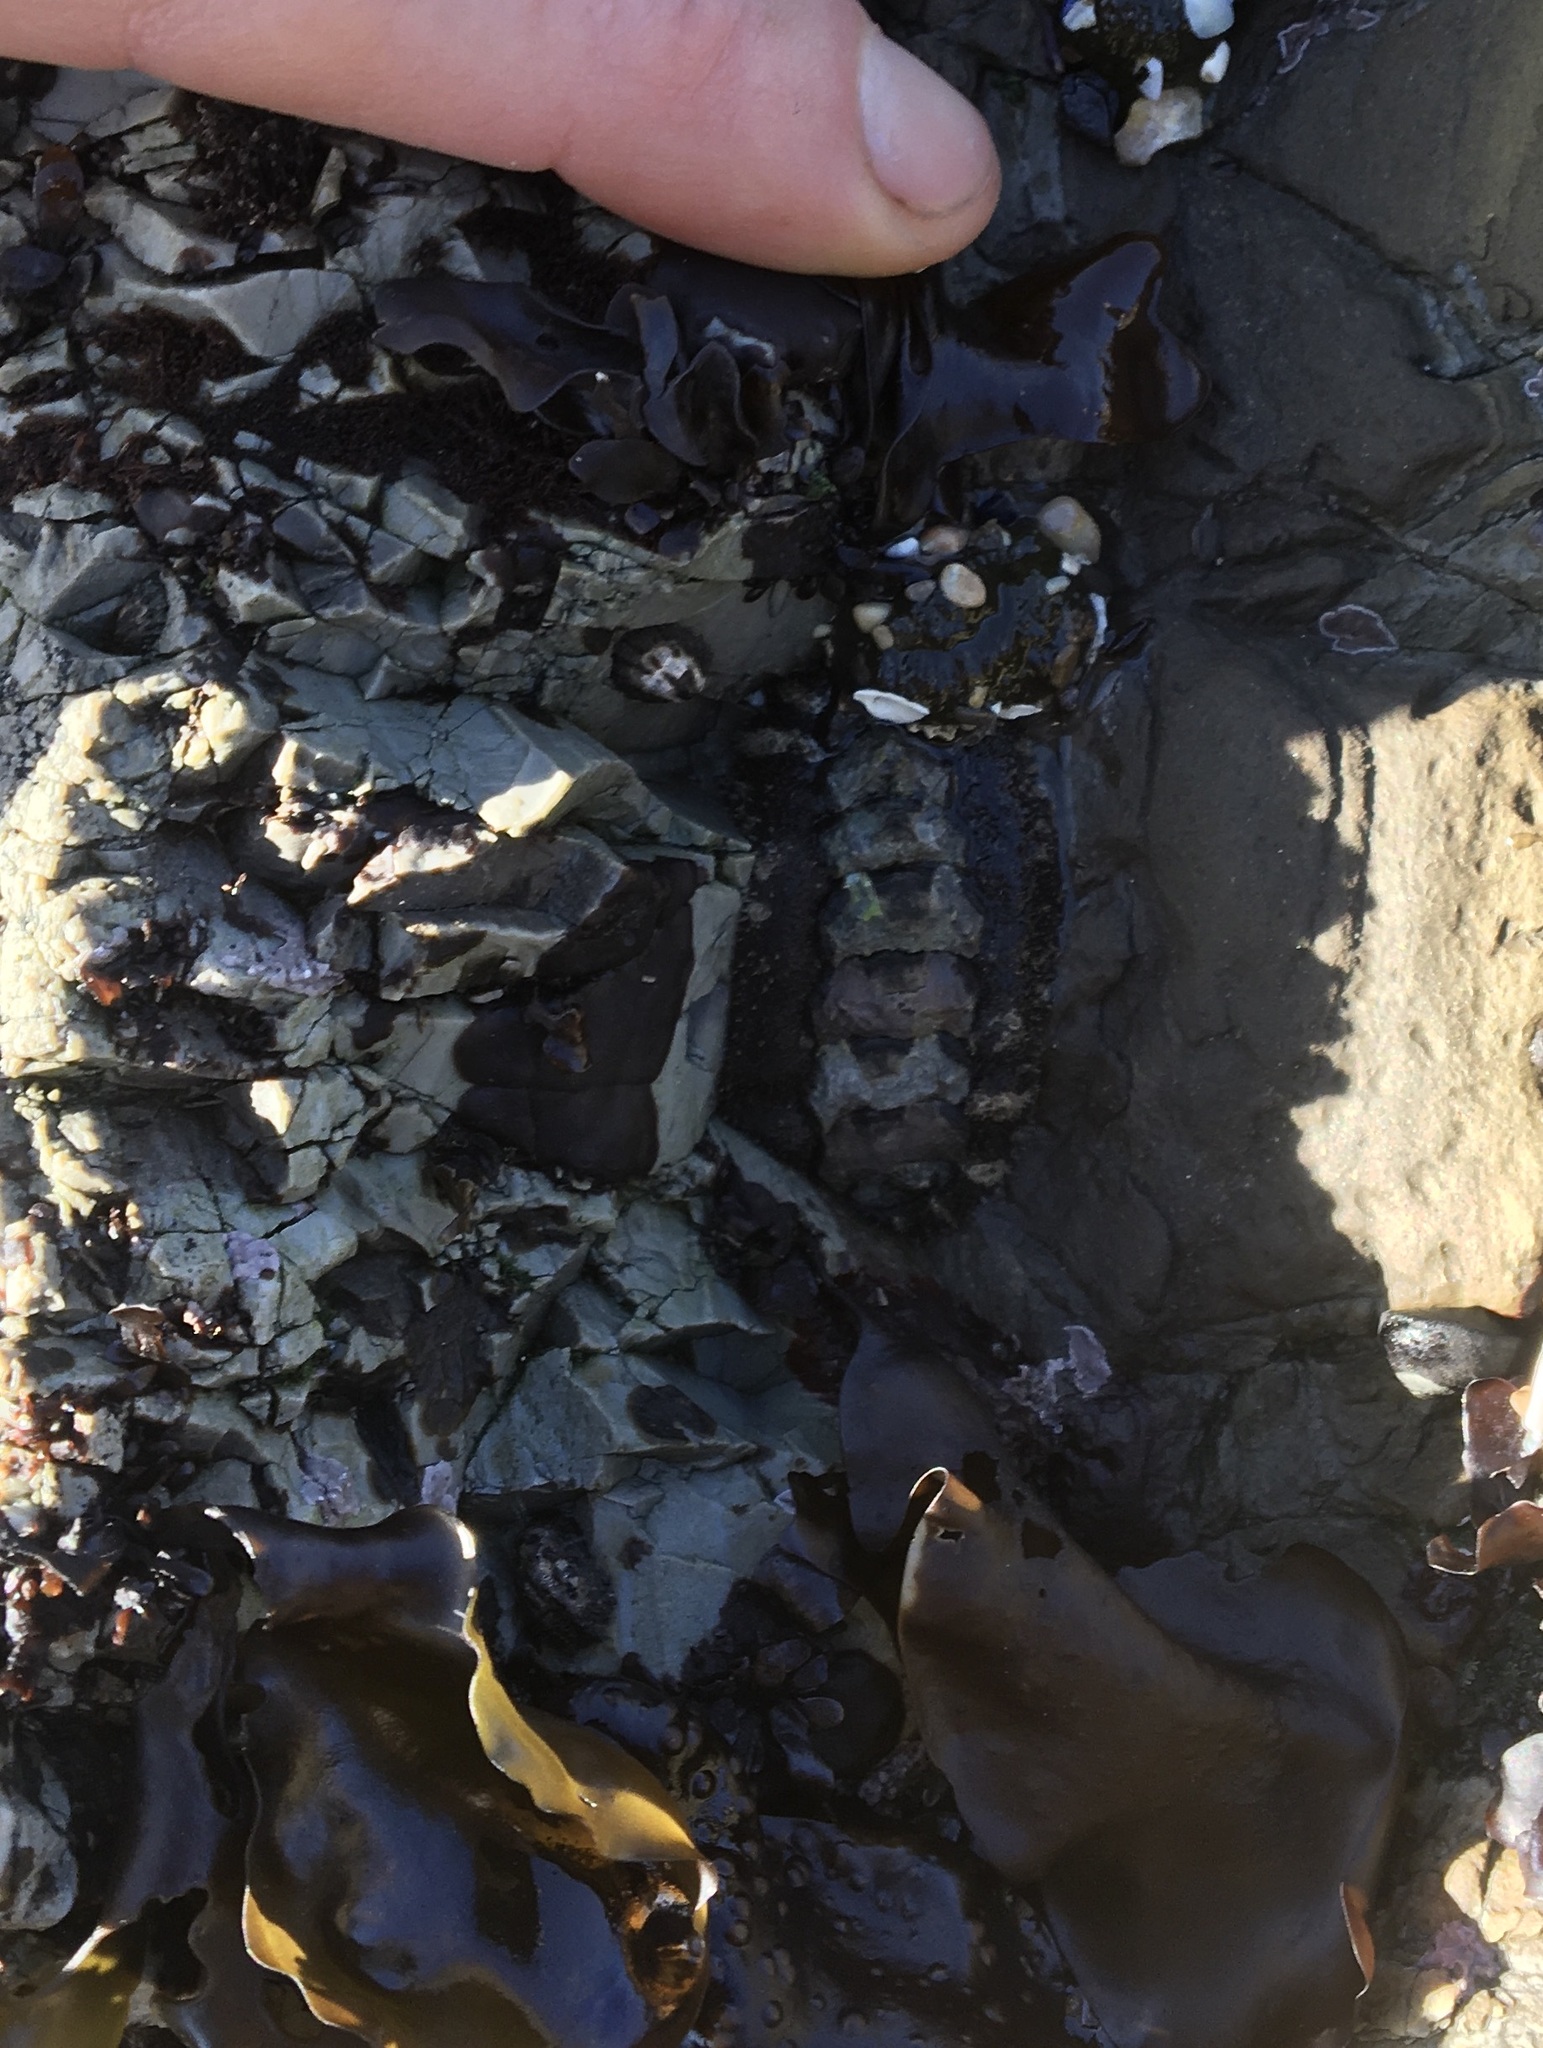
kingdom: Animalia
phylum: Mollusca
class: Polyplacophora
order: Chitonida
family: Tonicellidae
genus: Nuttallina
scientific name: Nuttallina californica
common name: California nuttall chiton
